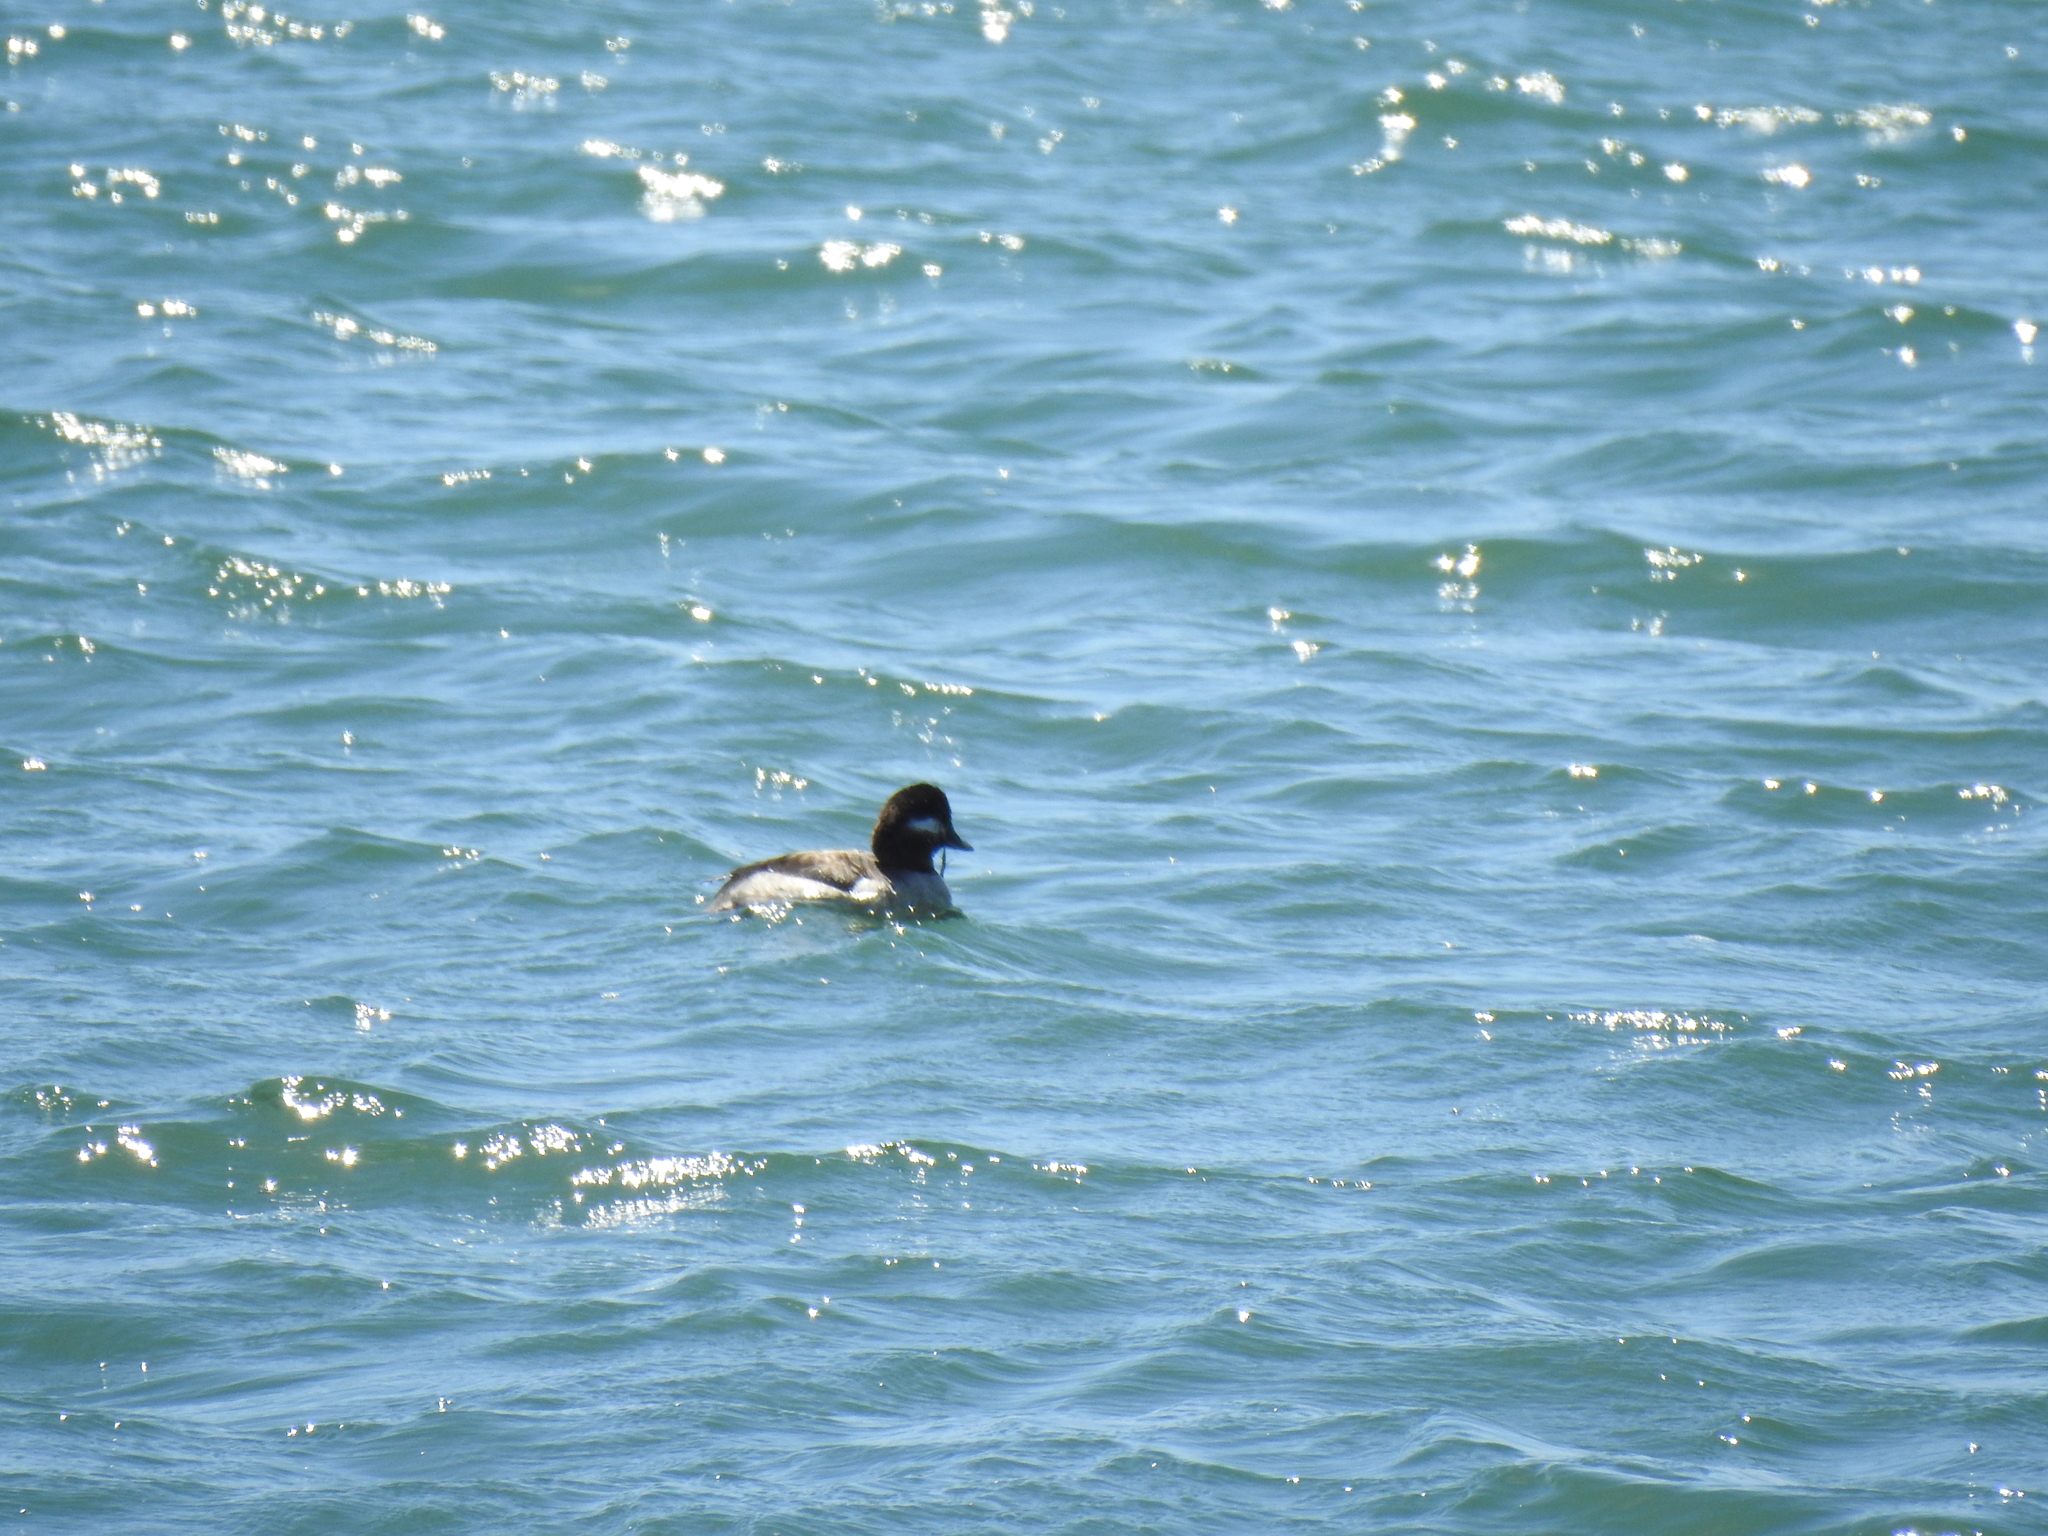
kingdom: Animalia
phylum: Chordata
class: Aves
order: Anseriformes
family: Anatidae
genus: Bucephala
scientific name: Bucephala albeola
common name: Bufflehead
